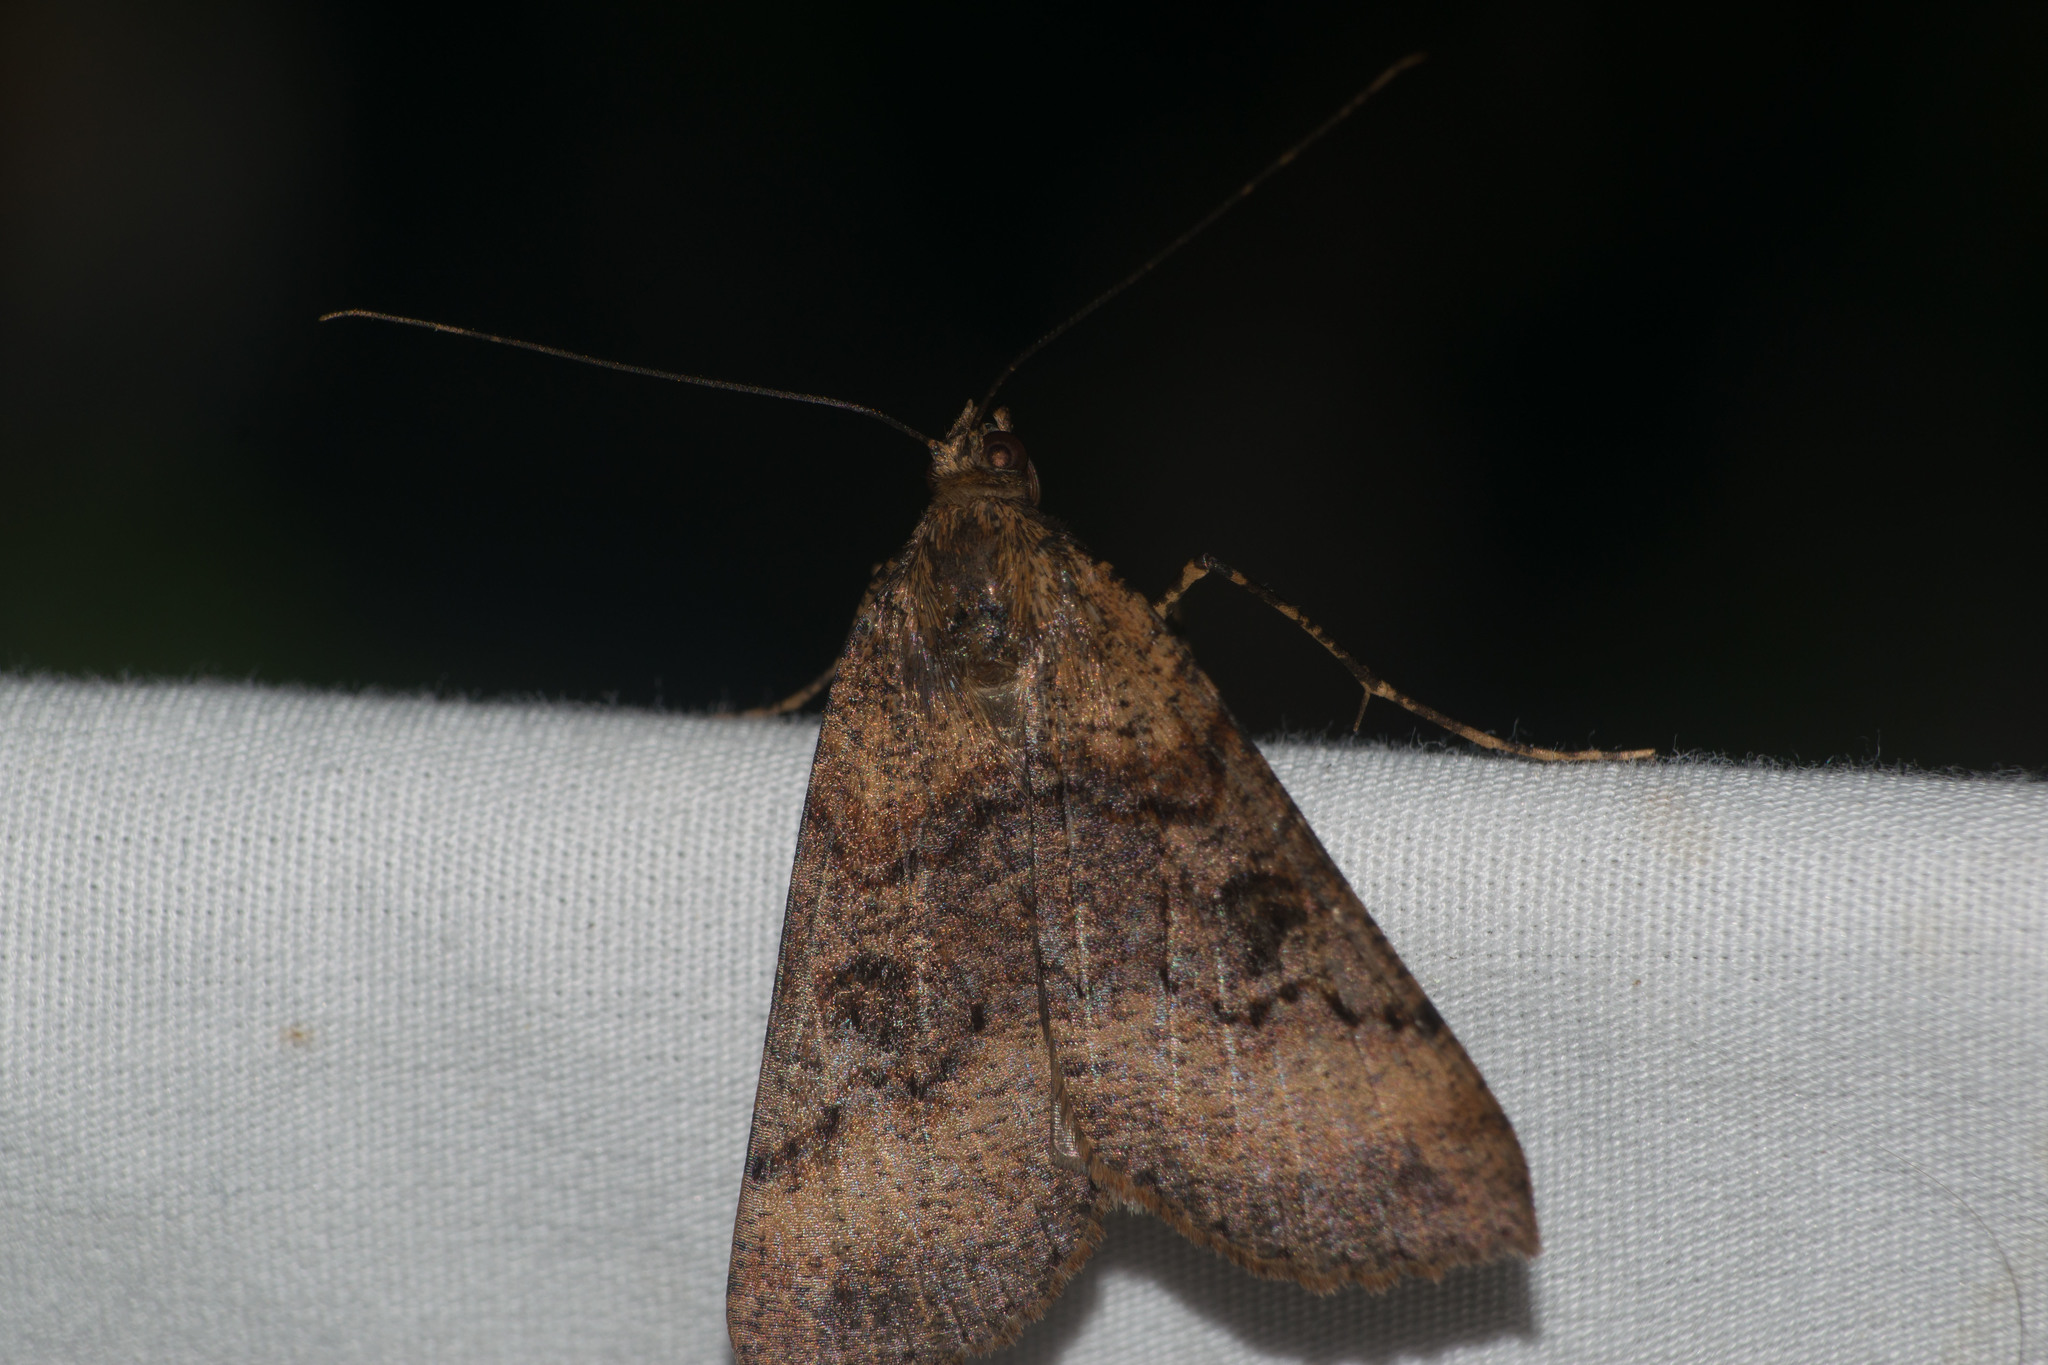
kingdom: Animalia
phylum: Arthropoda
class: Insecta
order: Lepidoptera
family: Geometridae
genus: Scotorythra
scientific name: Scotorythra rara
